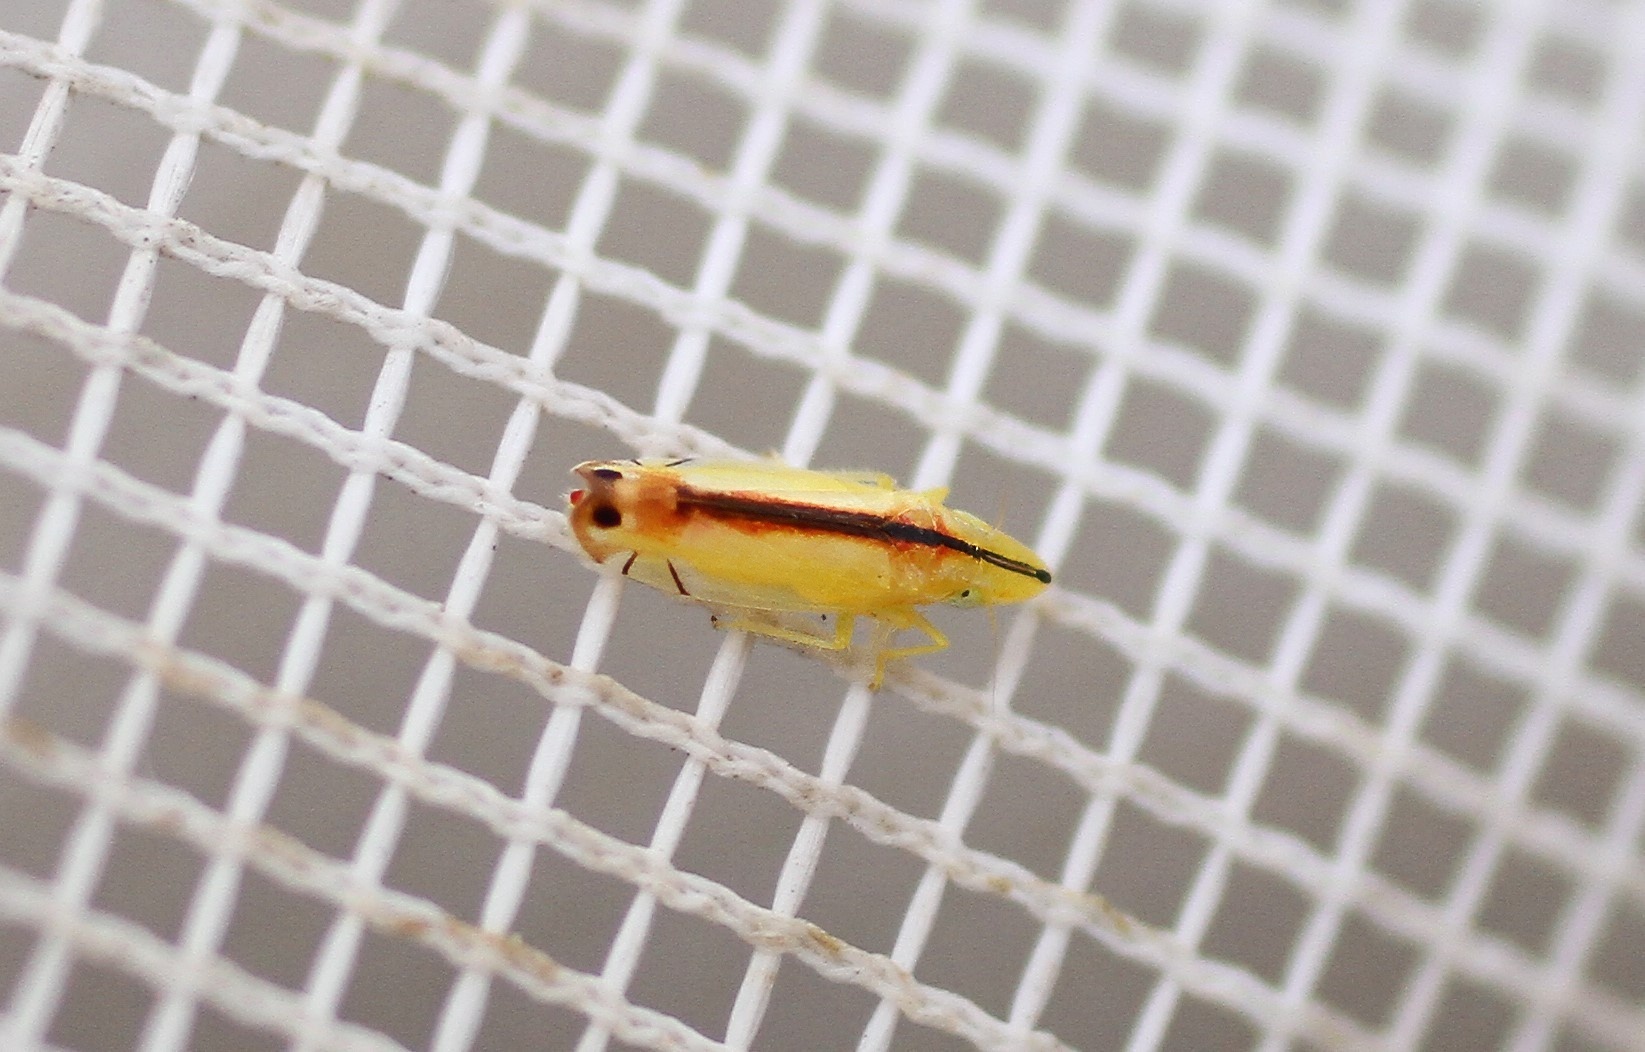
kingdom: Animalia
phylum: Arthropoda
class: Insecta
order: Hemiptera
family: Cicadellidae
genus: Sophonia
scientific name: Sophonia orientalis
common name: Two-spotted leafhopper
